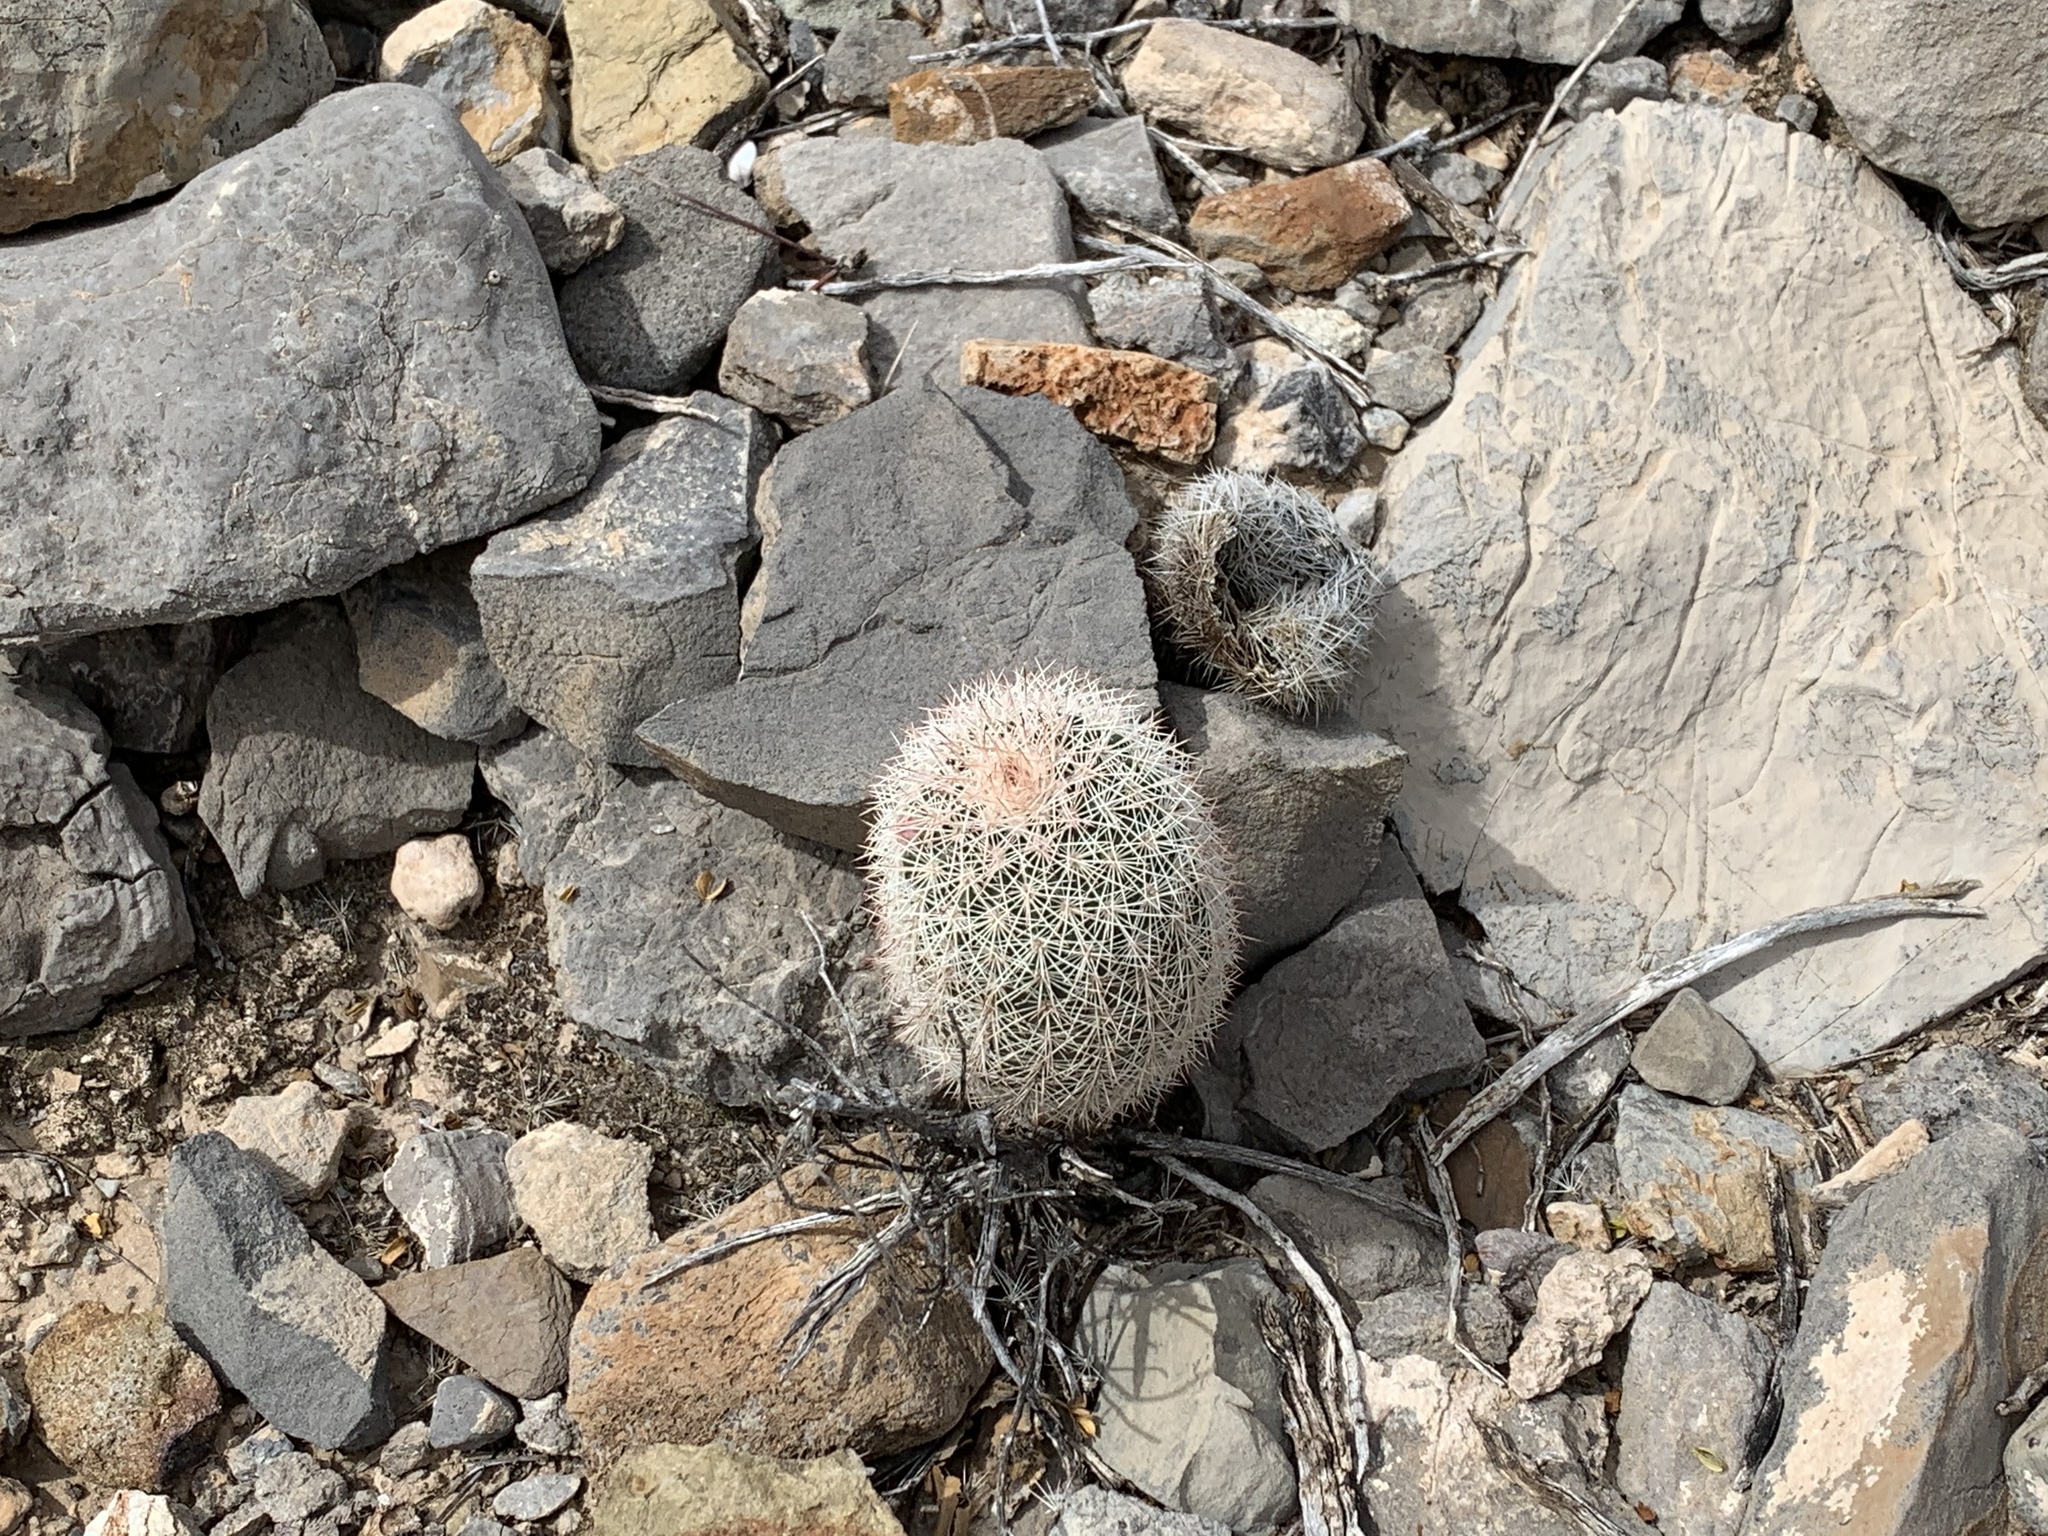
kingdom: Plantae
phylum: Tracheophyta
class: Magnoliopsida
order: Caryophyllales
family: Cactaceae
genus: Echinocereus
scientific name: Echinocereus dasyacanthus
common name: Spiny hedgehog cactus
